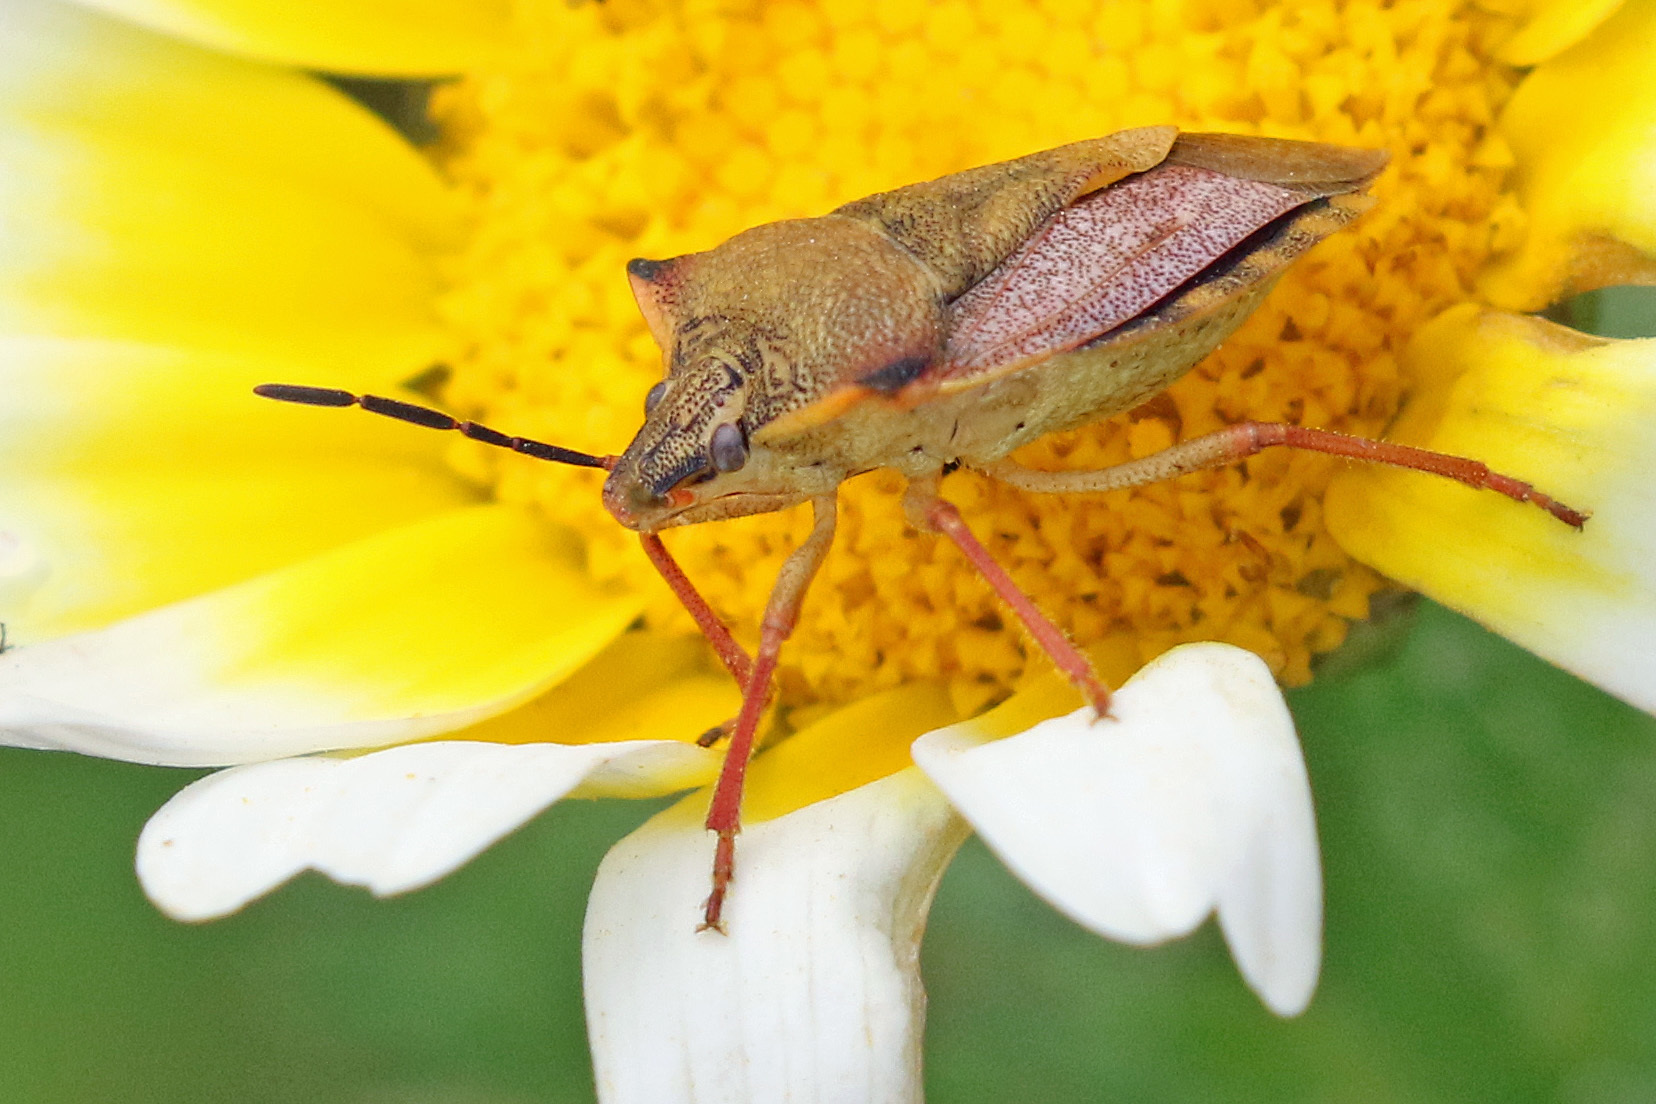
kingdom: Animalia
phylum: Arthropoda
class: Insecta
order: Hemiptera
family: Pentatomidae
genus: Carpocoris
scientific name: Carpocoris mediterraneus
